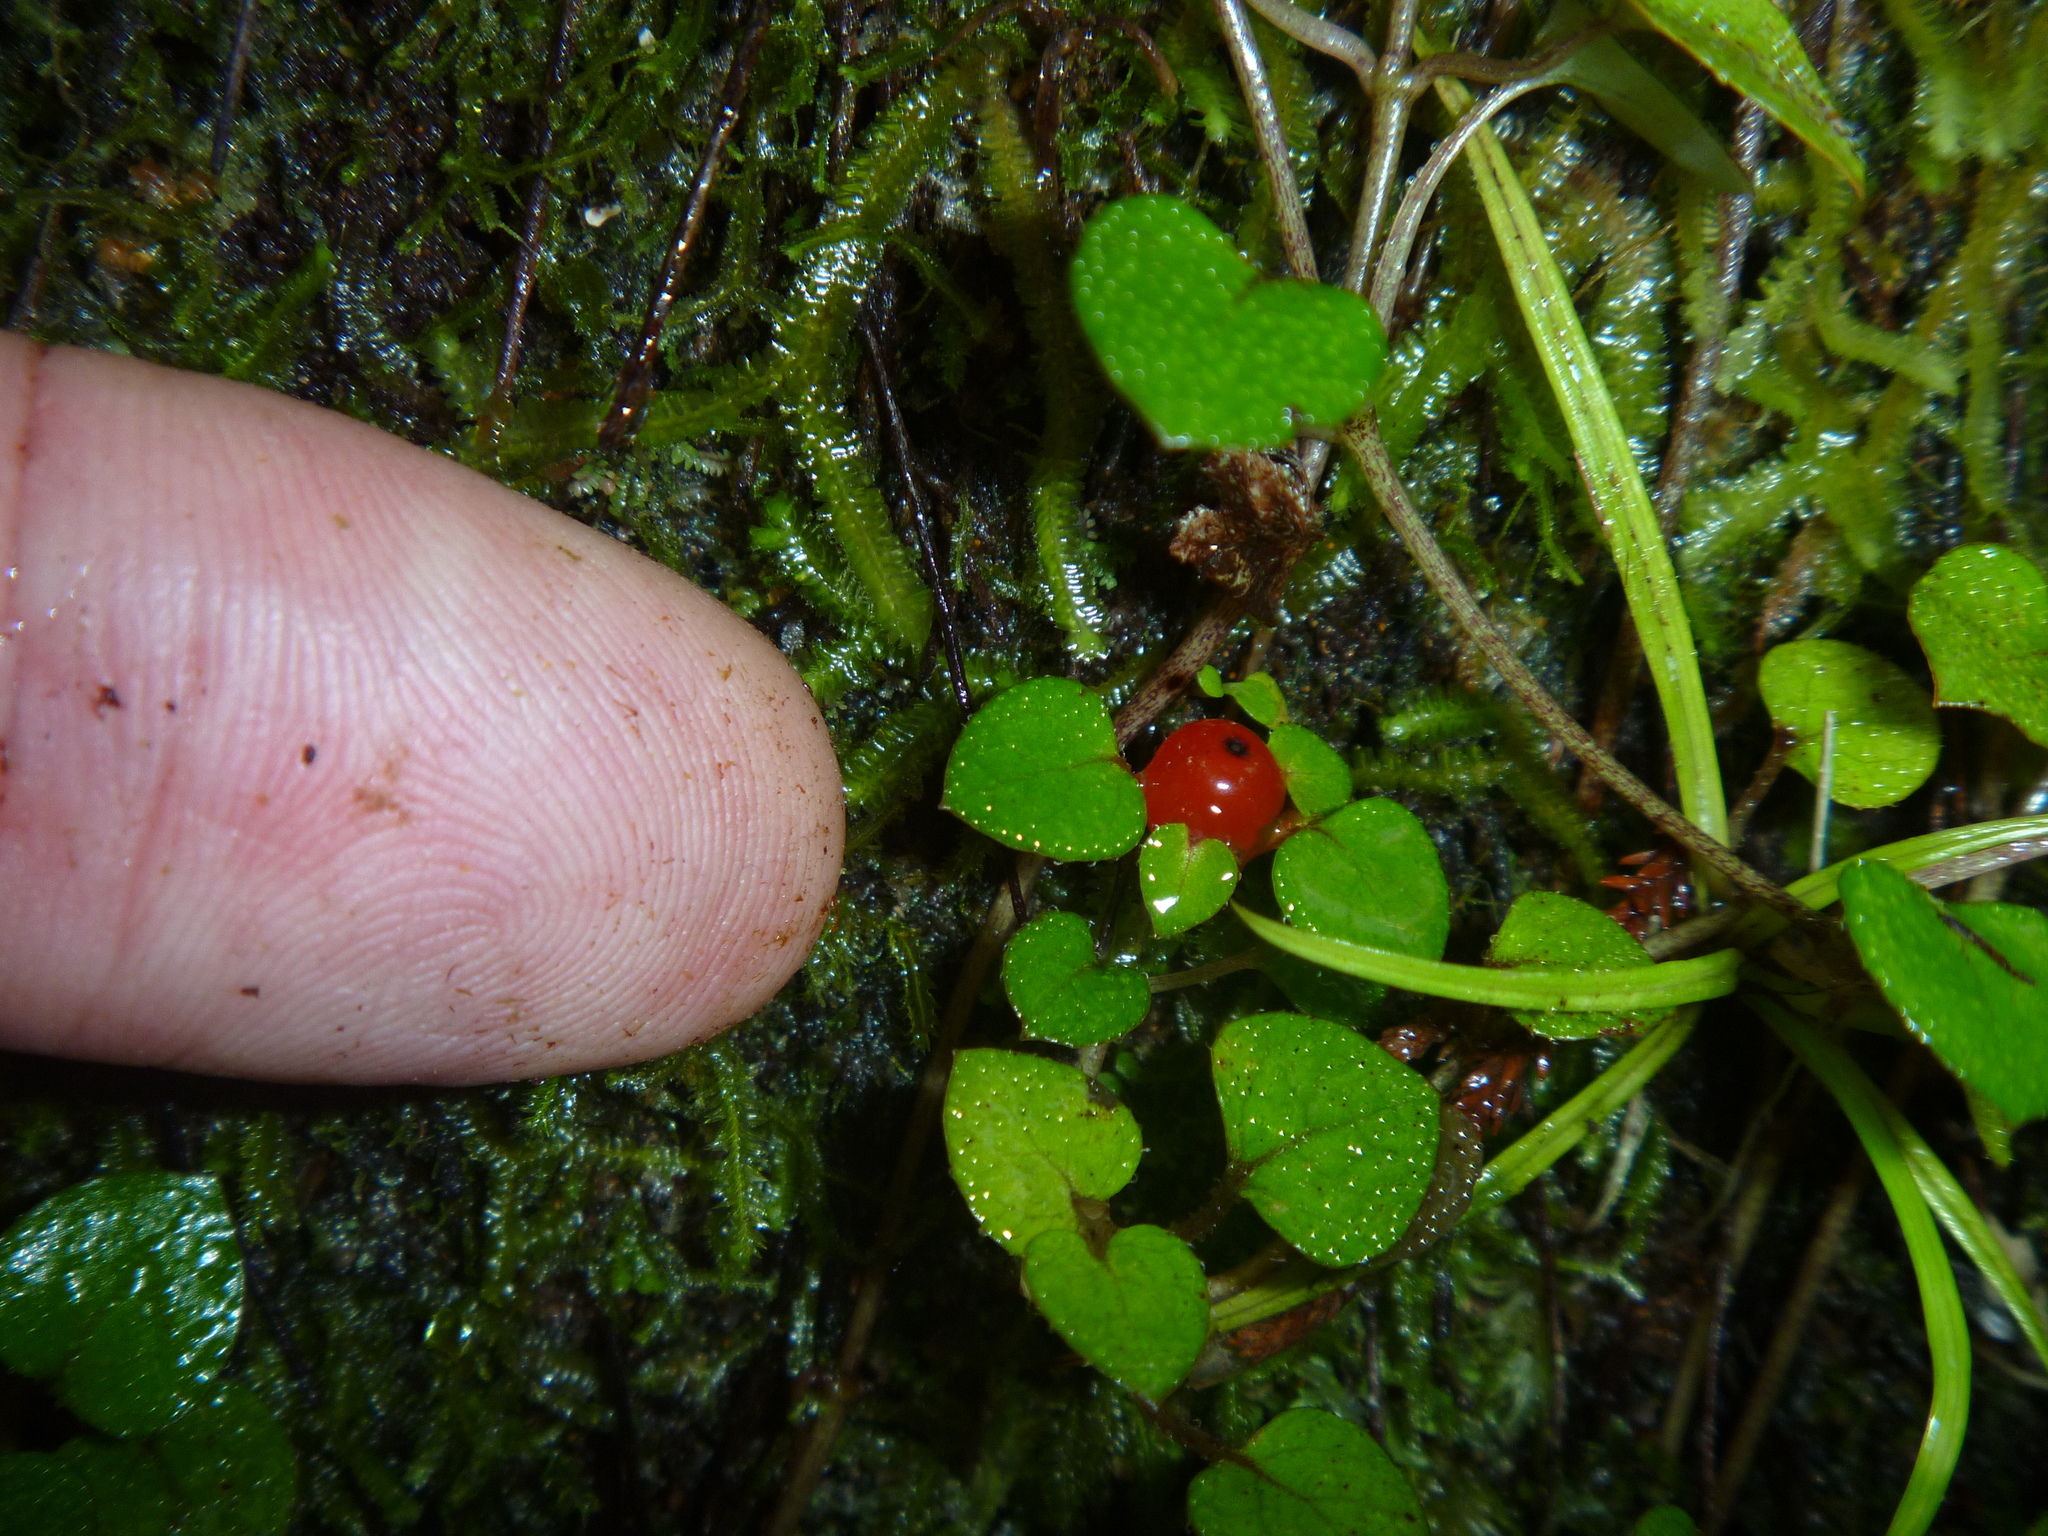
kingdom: Plantae
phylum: Tracheophyta
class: Magnoliopsida
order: Gentianales
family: Rubiaceae
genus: Nertera
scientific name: Nertera dichondrifolia
